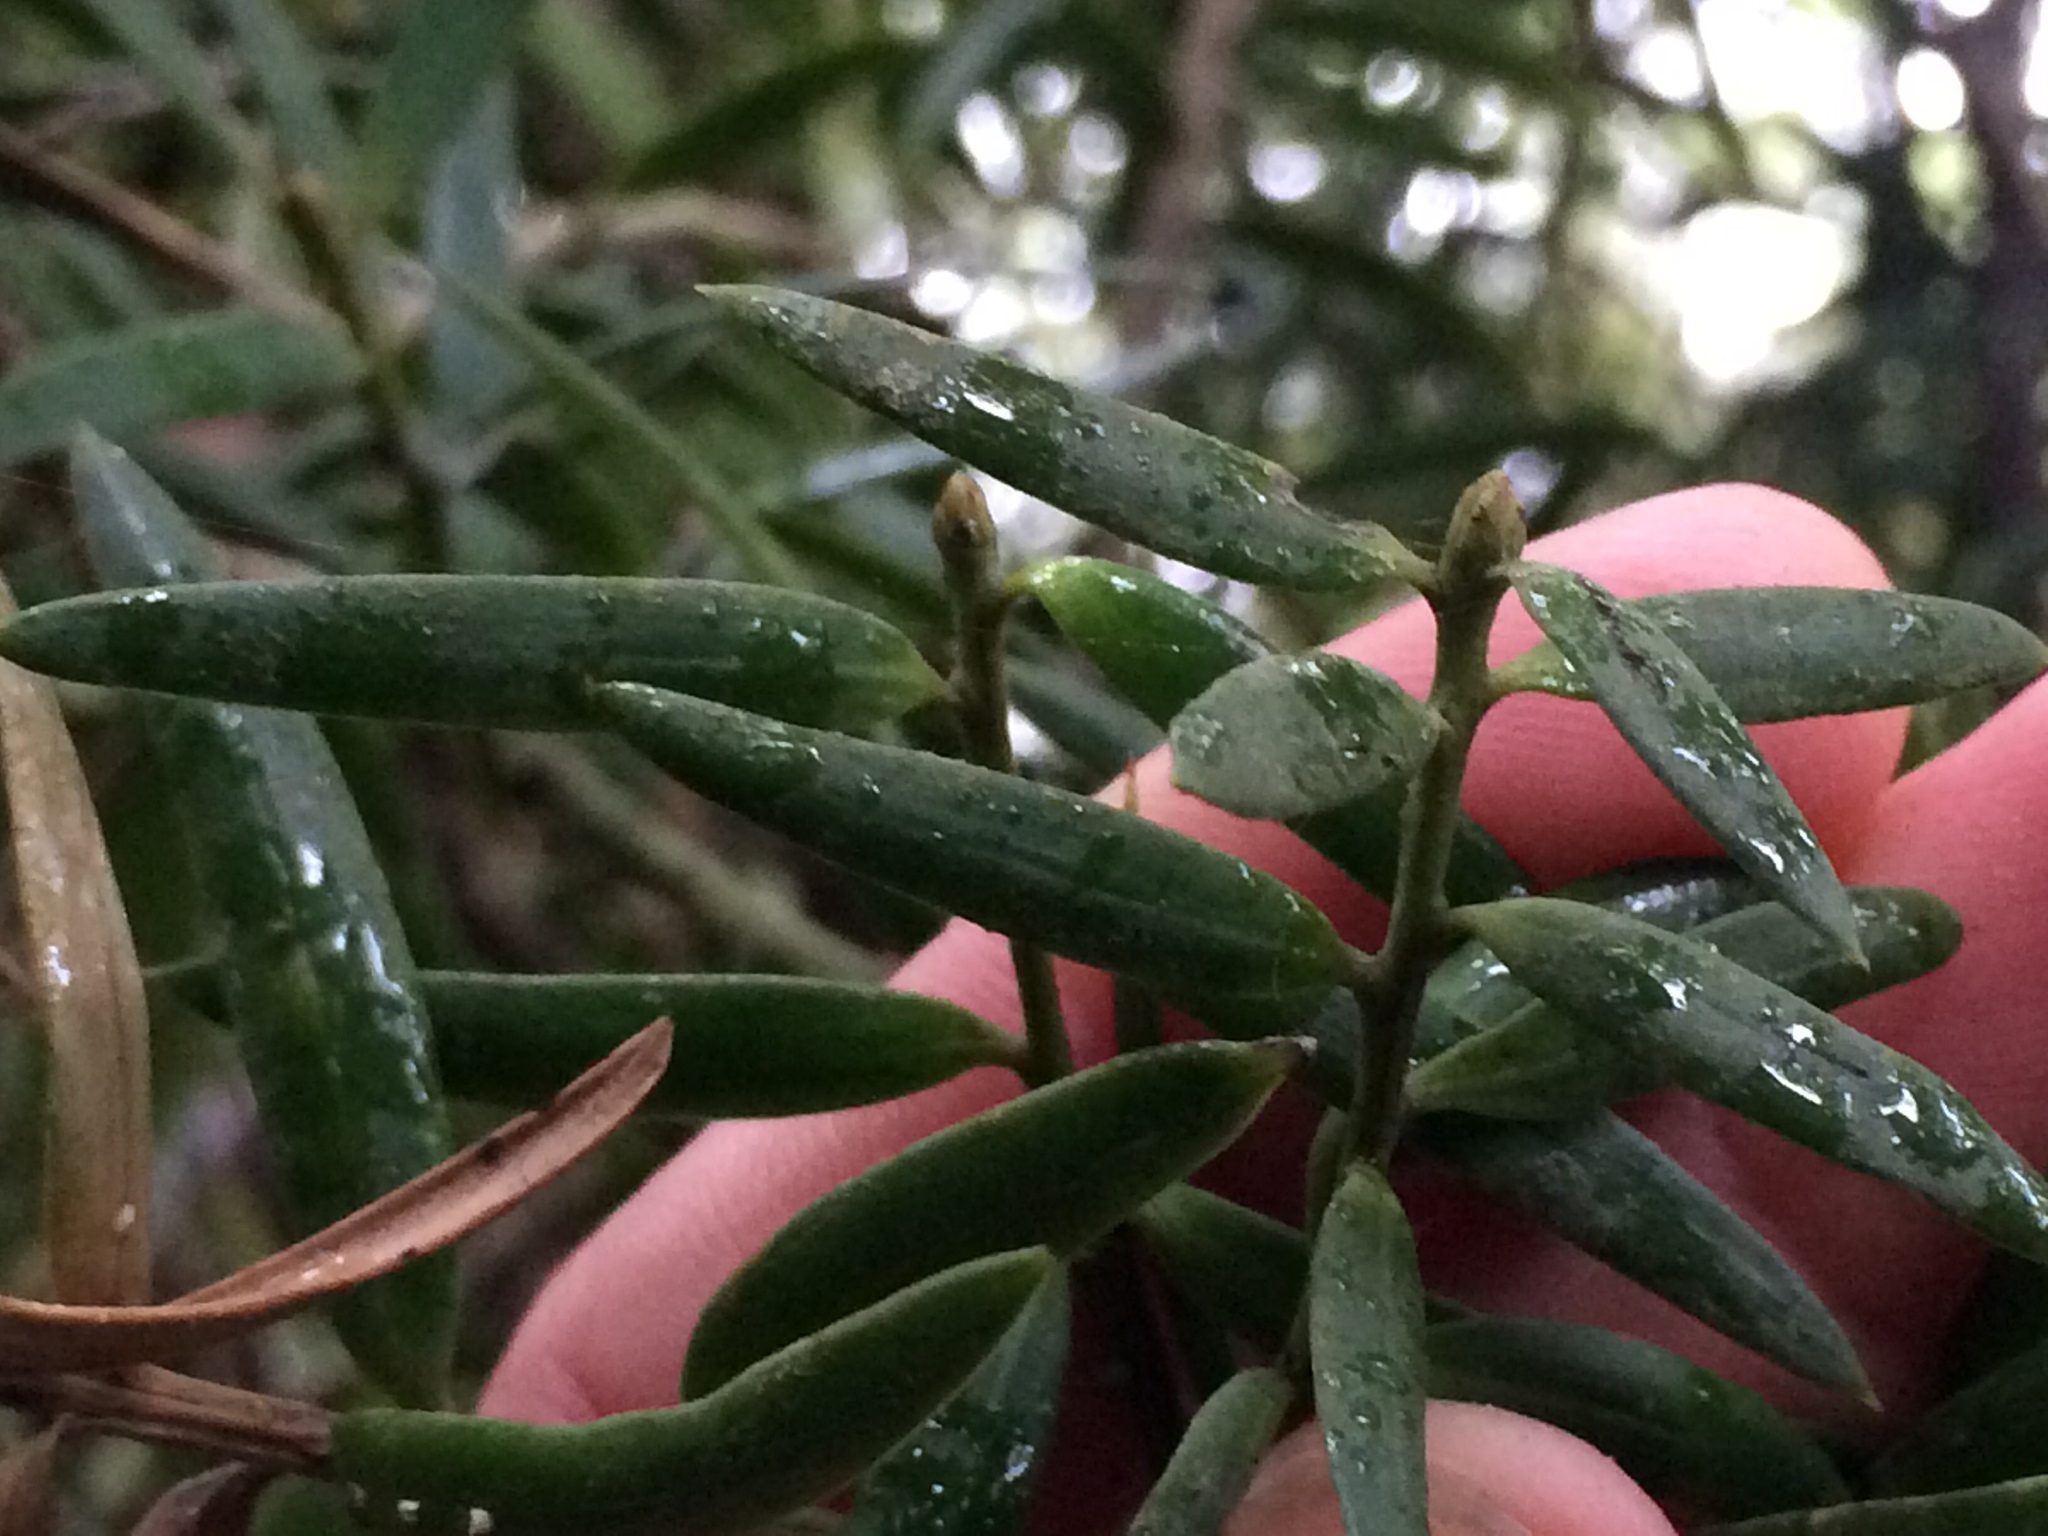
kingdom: Plantae
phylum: Tracheophyta
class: Pinopsida
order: Pinales
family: Podocarpaceae
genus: Podocarpus
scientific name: Podocarpus laetus
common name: Hall's totara
